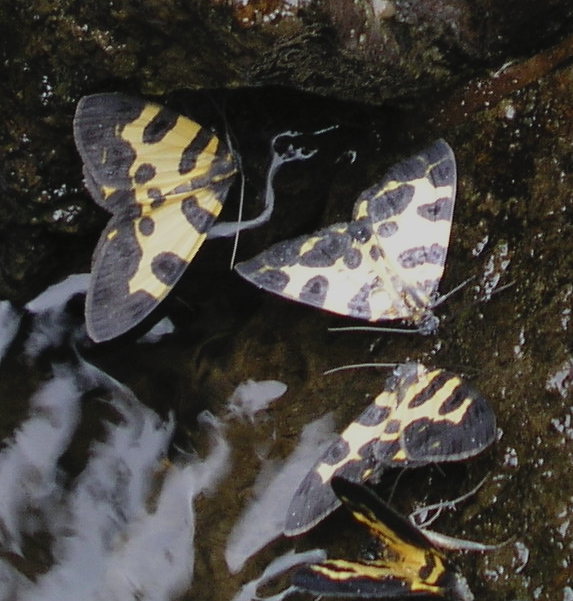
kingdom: Animalia
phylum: Arthropoda
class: Insecta
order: Lepidoptera
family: Geometridae
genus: Pantherodes
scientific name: Pantherodes pardalaria
